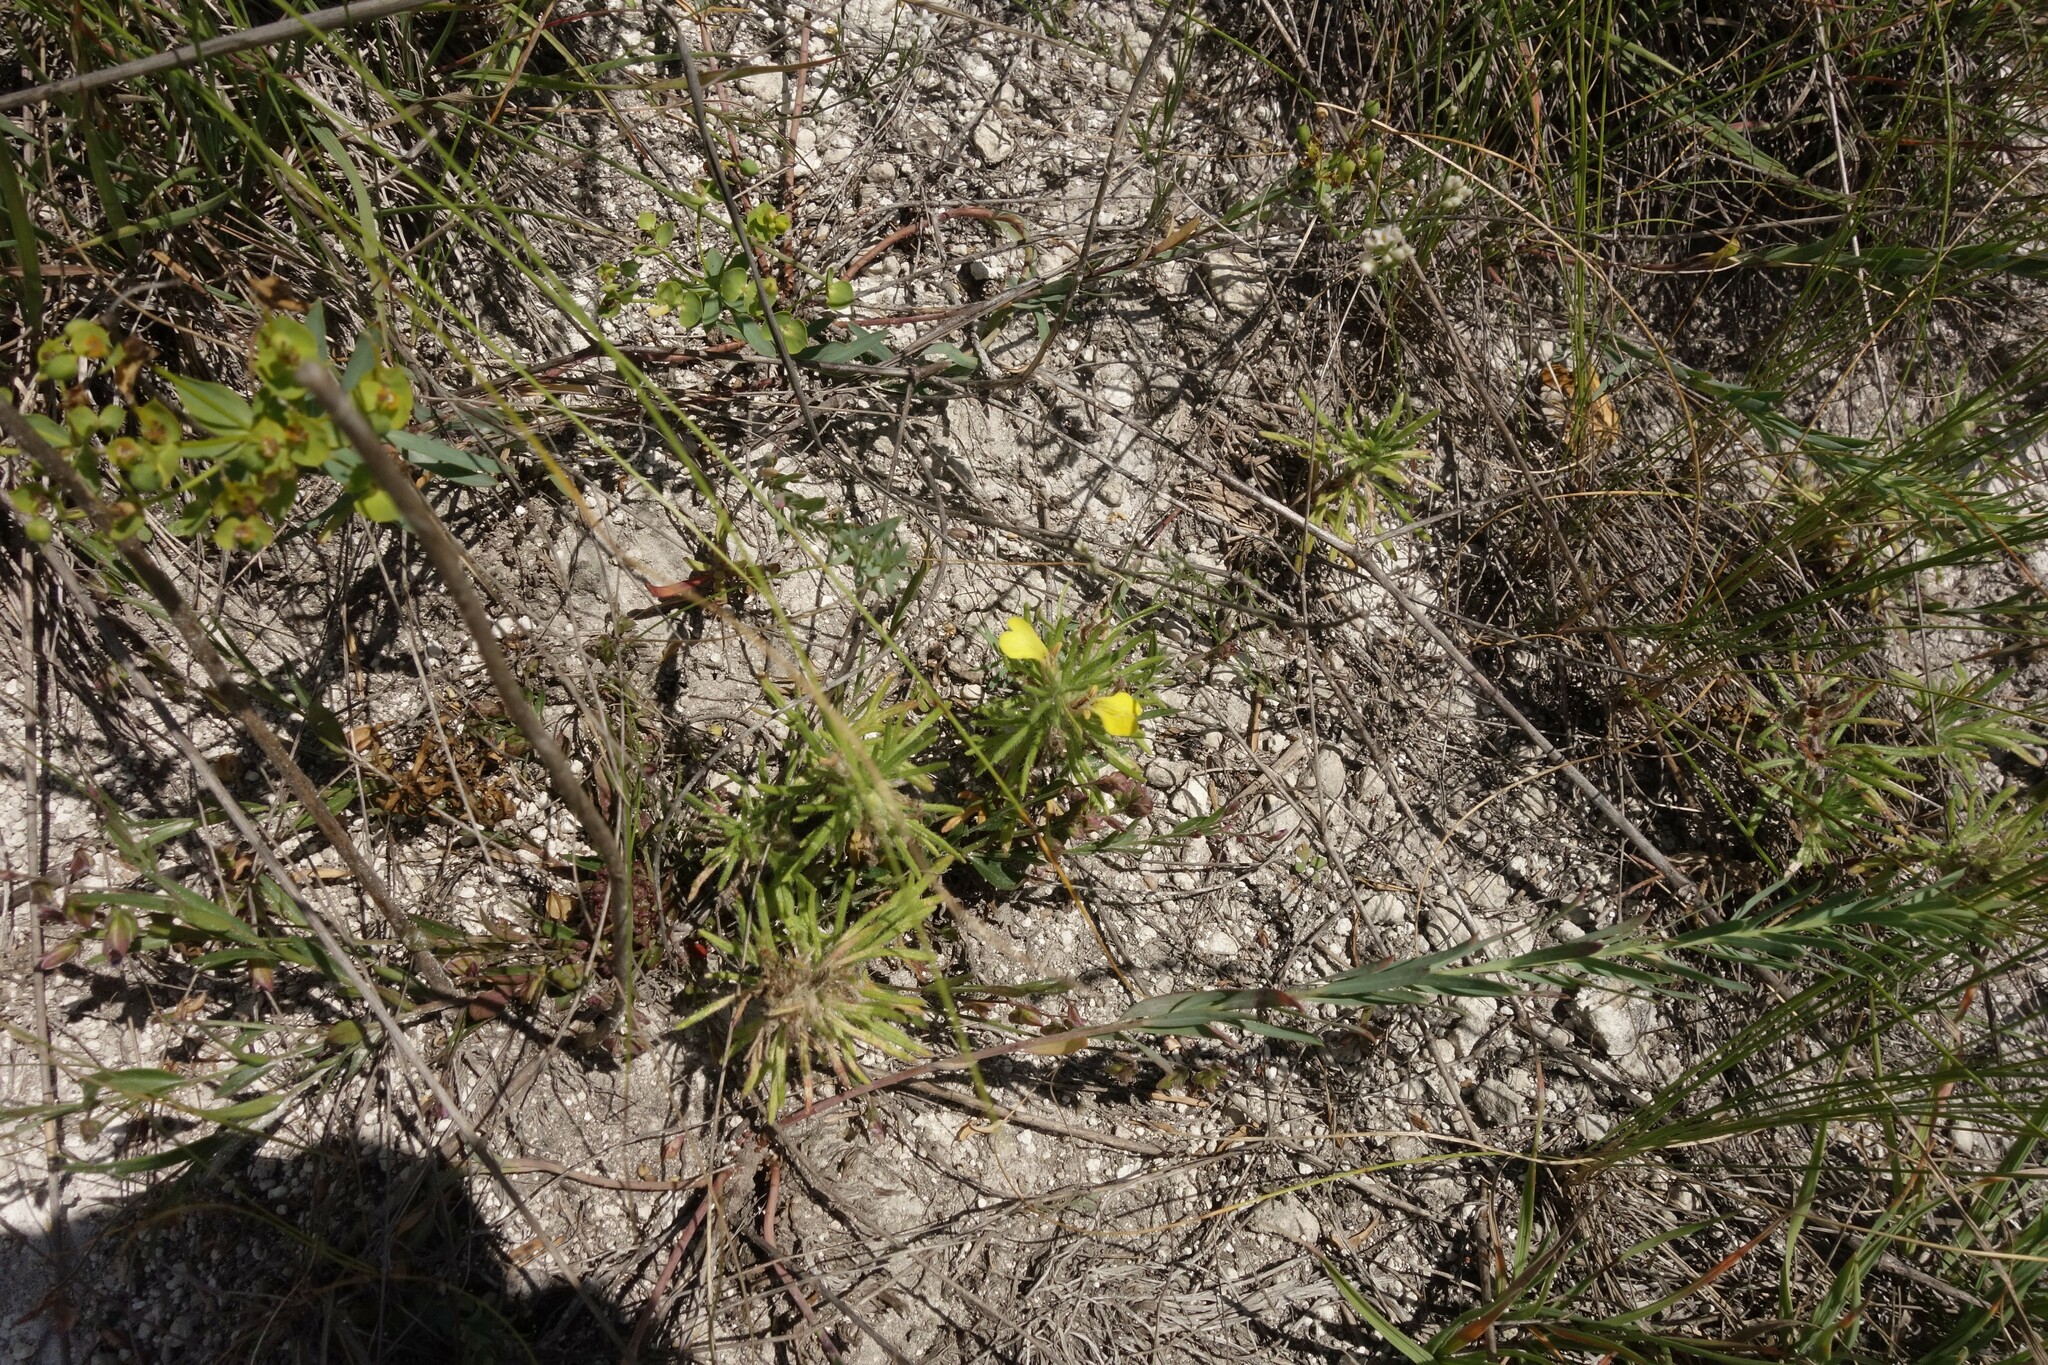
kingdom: Plantae
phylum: Tracheophyta
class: Magnoliopsida
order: Lamiales
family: Lamiaceae
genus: Ajuga
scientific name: Ajuga chamaepitys
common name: Ground-pine
